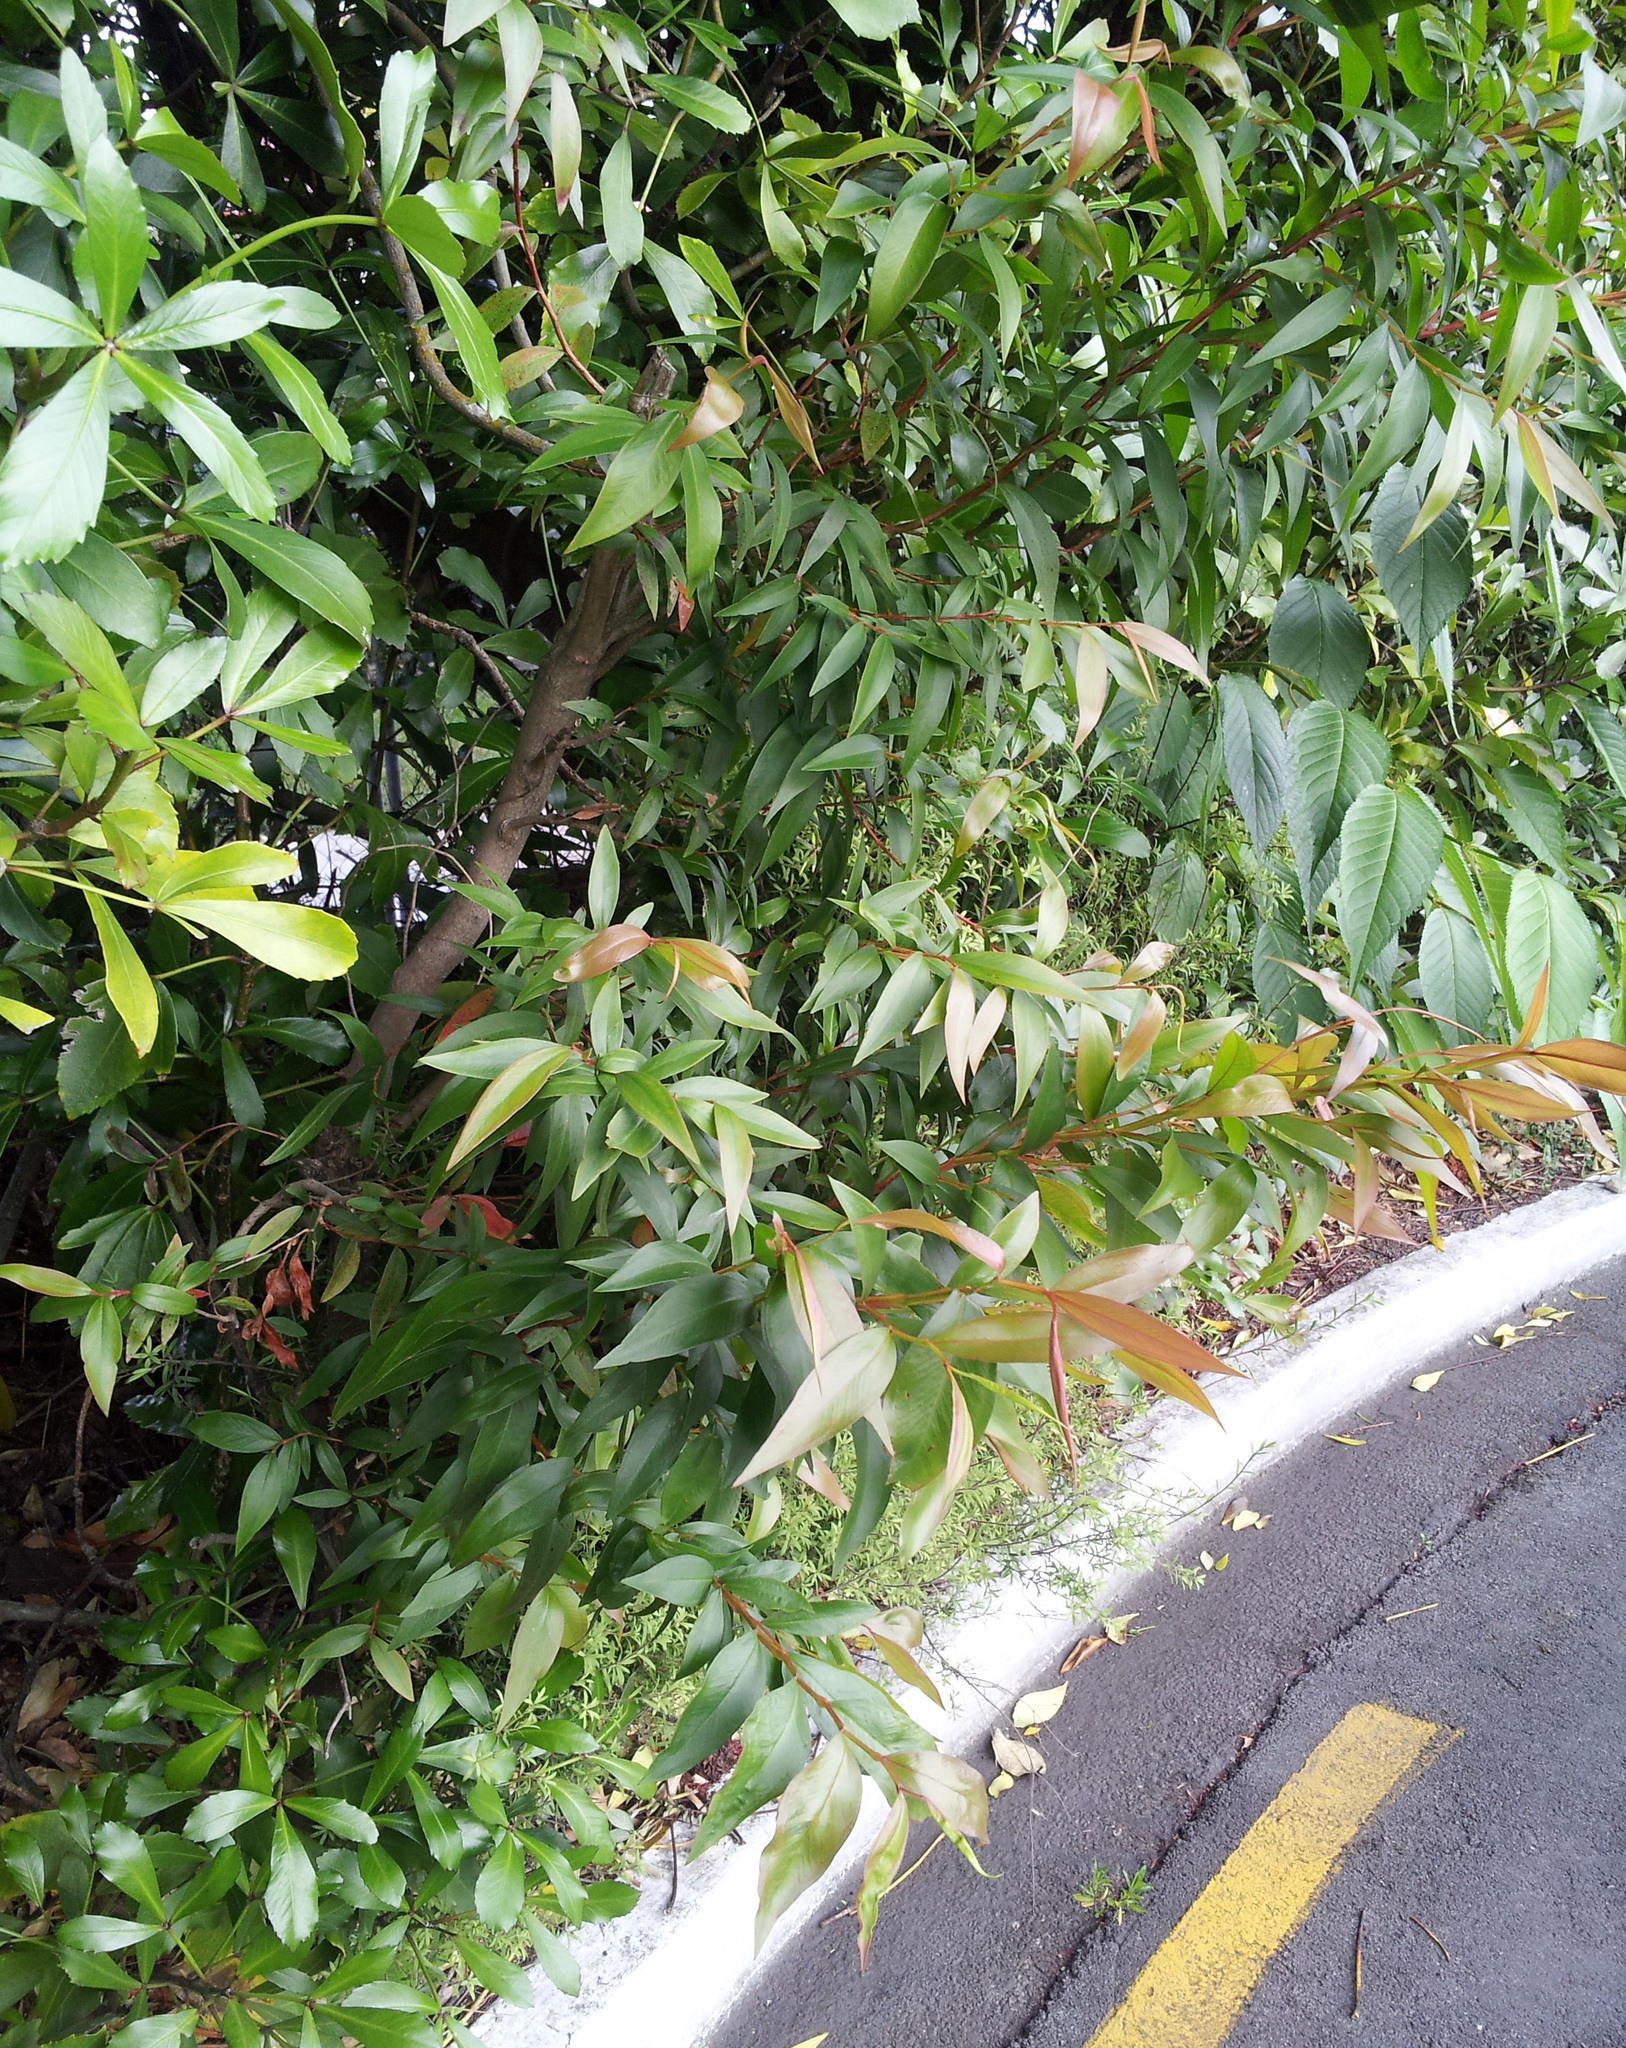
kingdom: Plantae
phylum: Tracheophyta
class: Magnoliopsida
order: Myrtales
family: Myrtaceae
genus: Agonis
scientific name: Agonis flexuosa
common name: Willow myrtle
